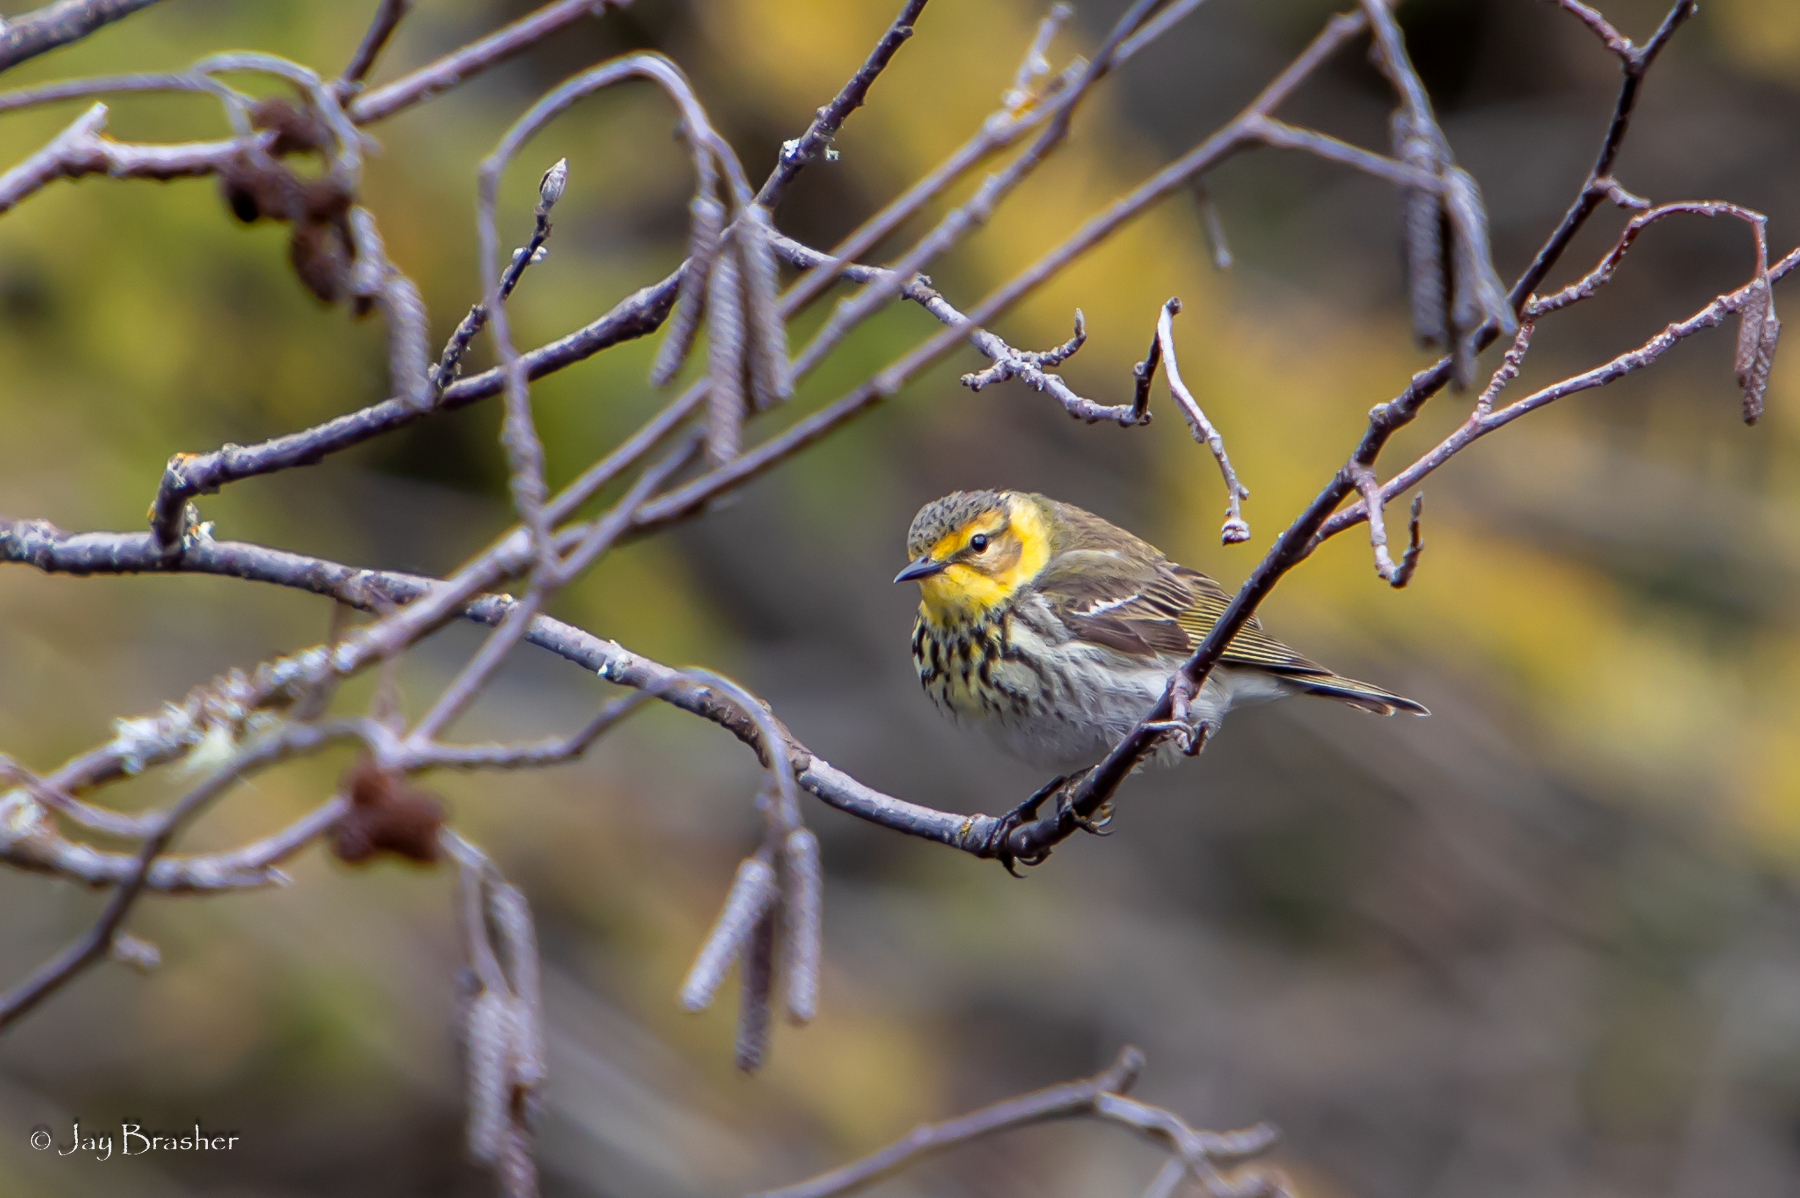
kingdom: Animalia
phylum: Chordata
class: Aves
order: Passeriformes
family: Parulidae
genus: Setophaga
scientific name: Setophaga tigrina
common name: Cape may warbler
